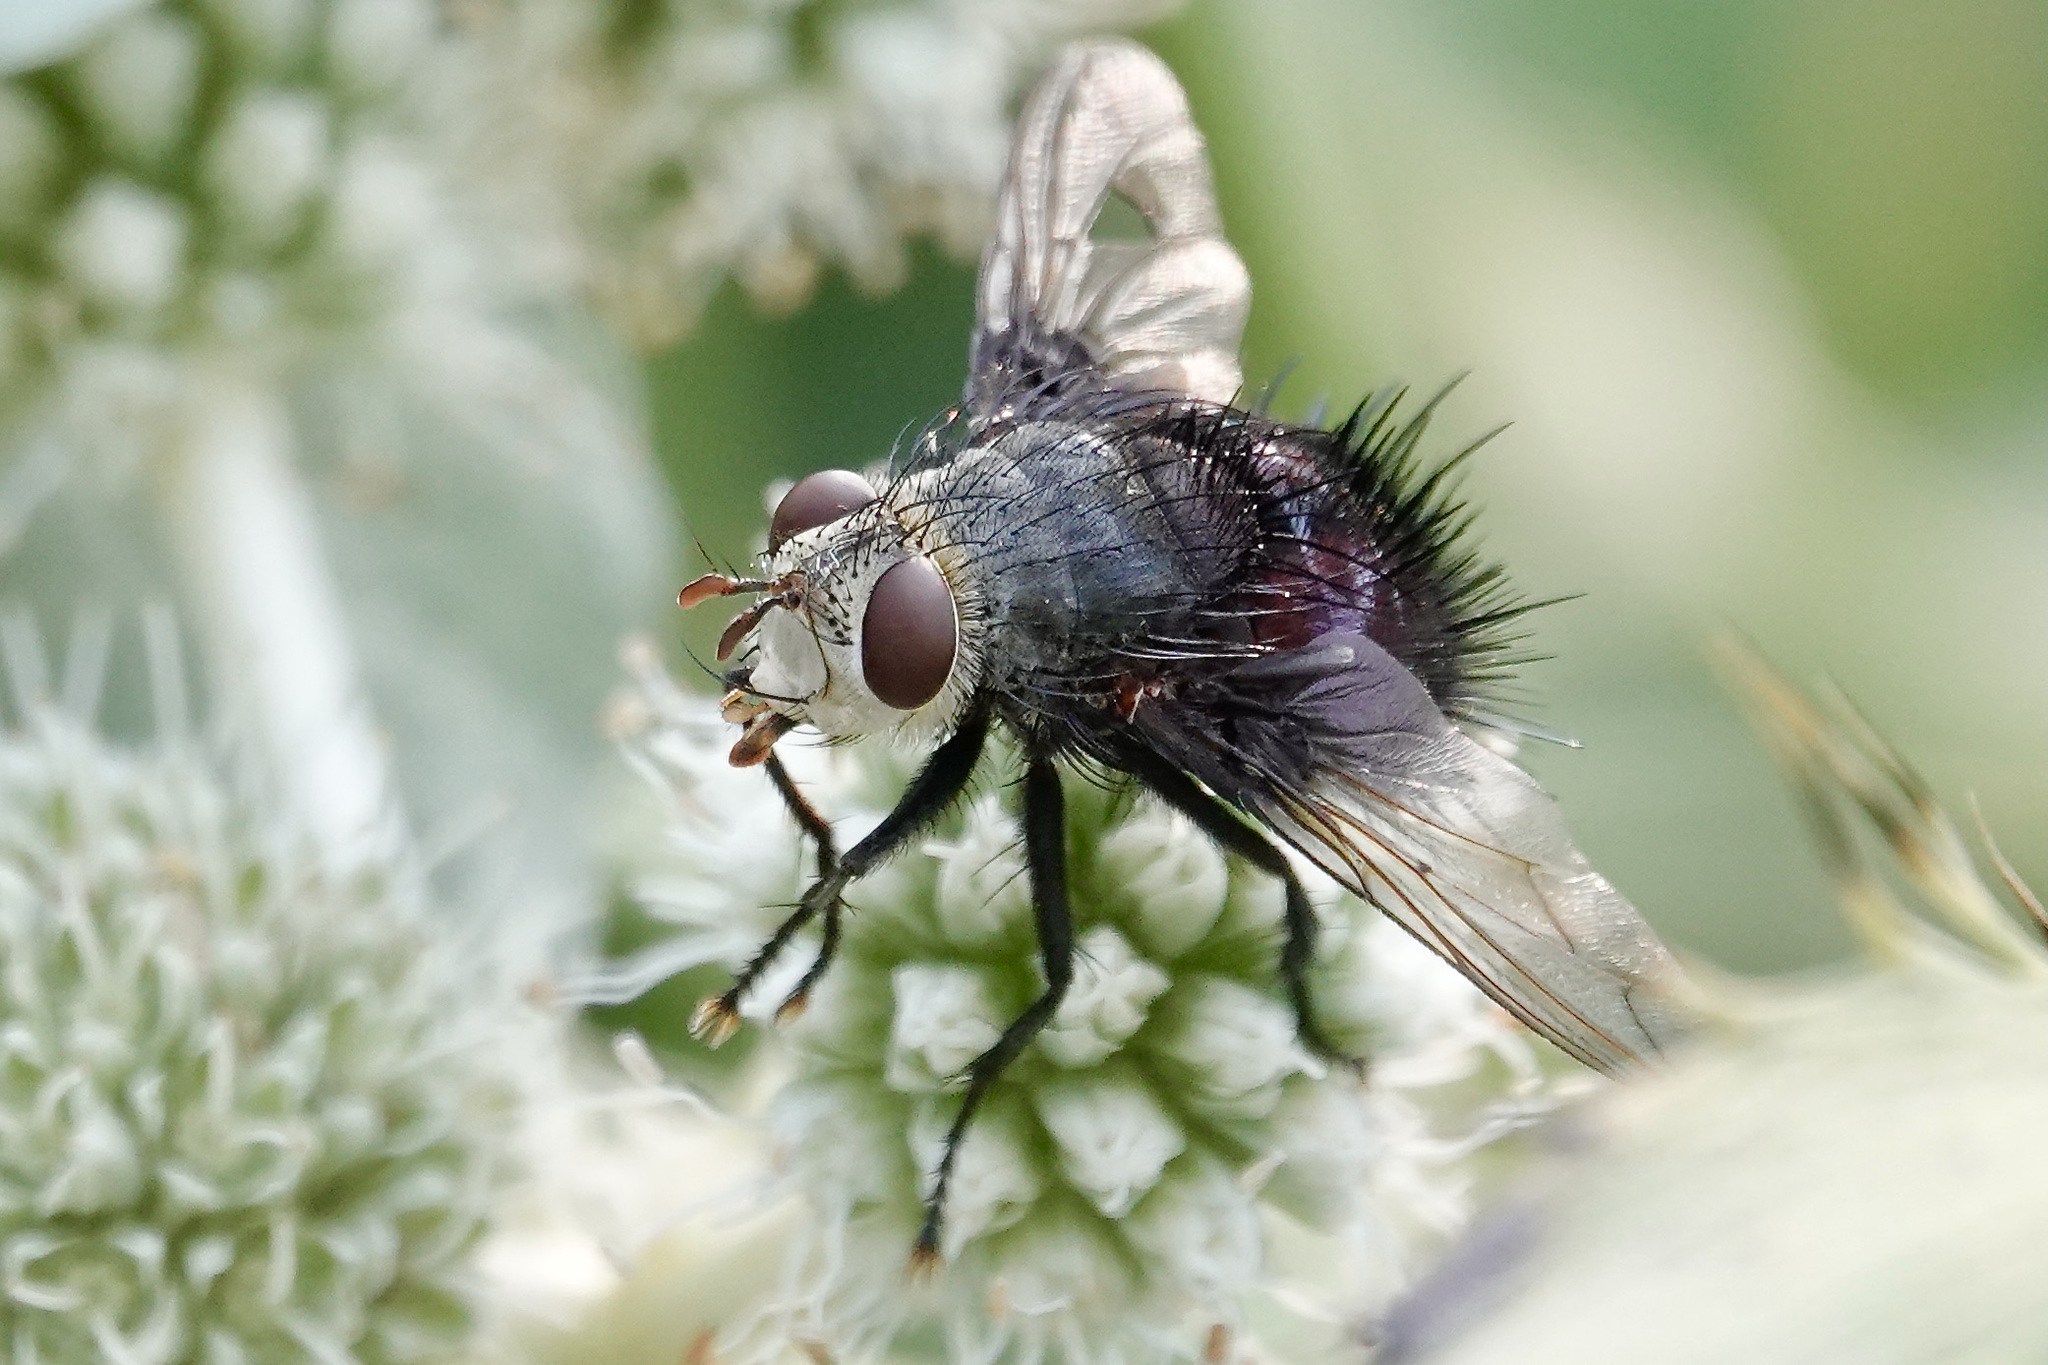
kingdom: Animalia
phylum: Arthropoda
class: Insecta
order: Diptera
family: Tachinidae
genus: Juriniopsis
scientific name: Juriniopsis adusta
